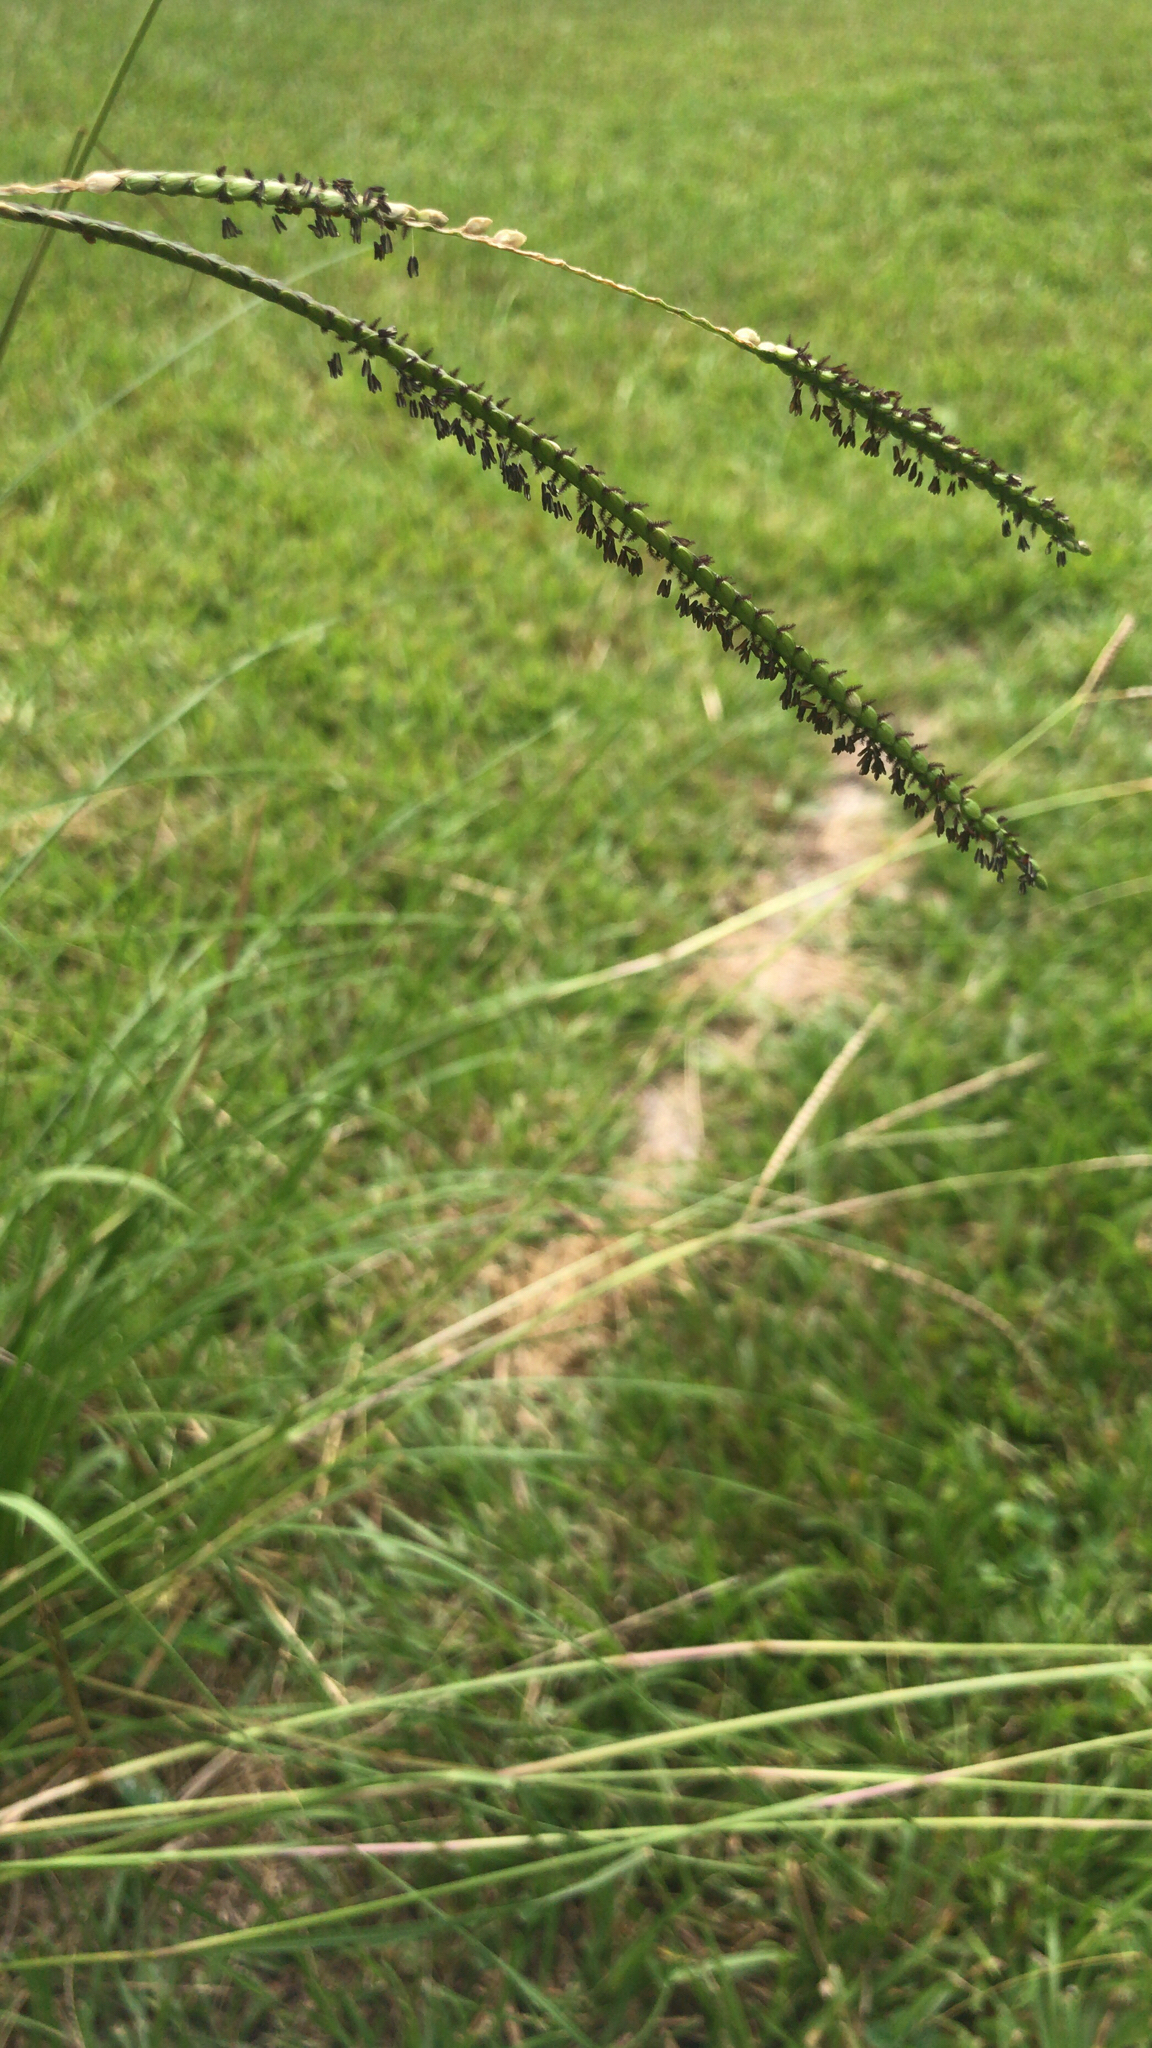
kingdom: Plantae
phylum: Tracheophyta
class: Liliopsida
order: Poales
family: Poaceae
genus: Paspalum
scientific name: Paspalum notatum
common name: Bahiagrass
